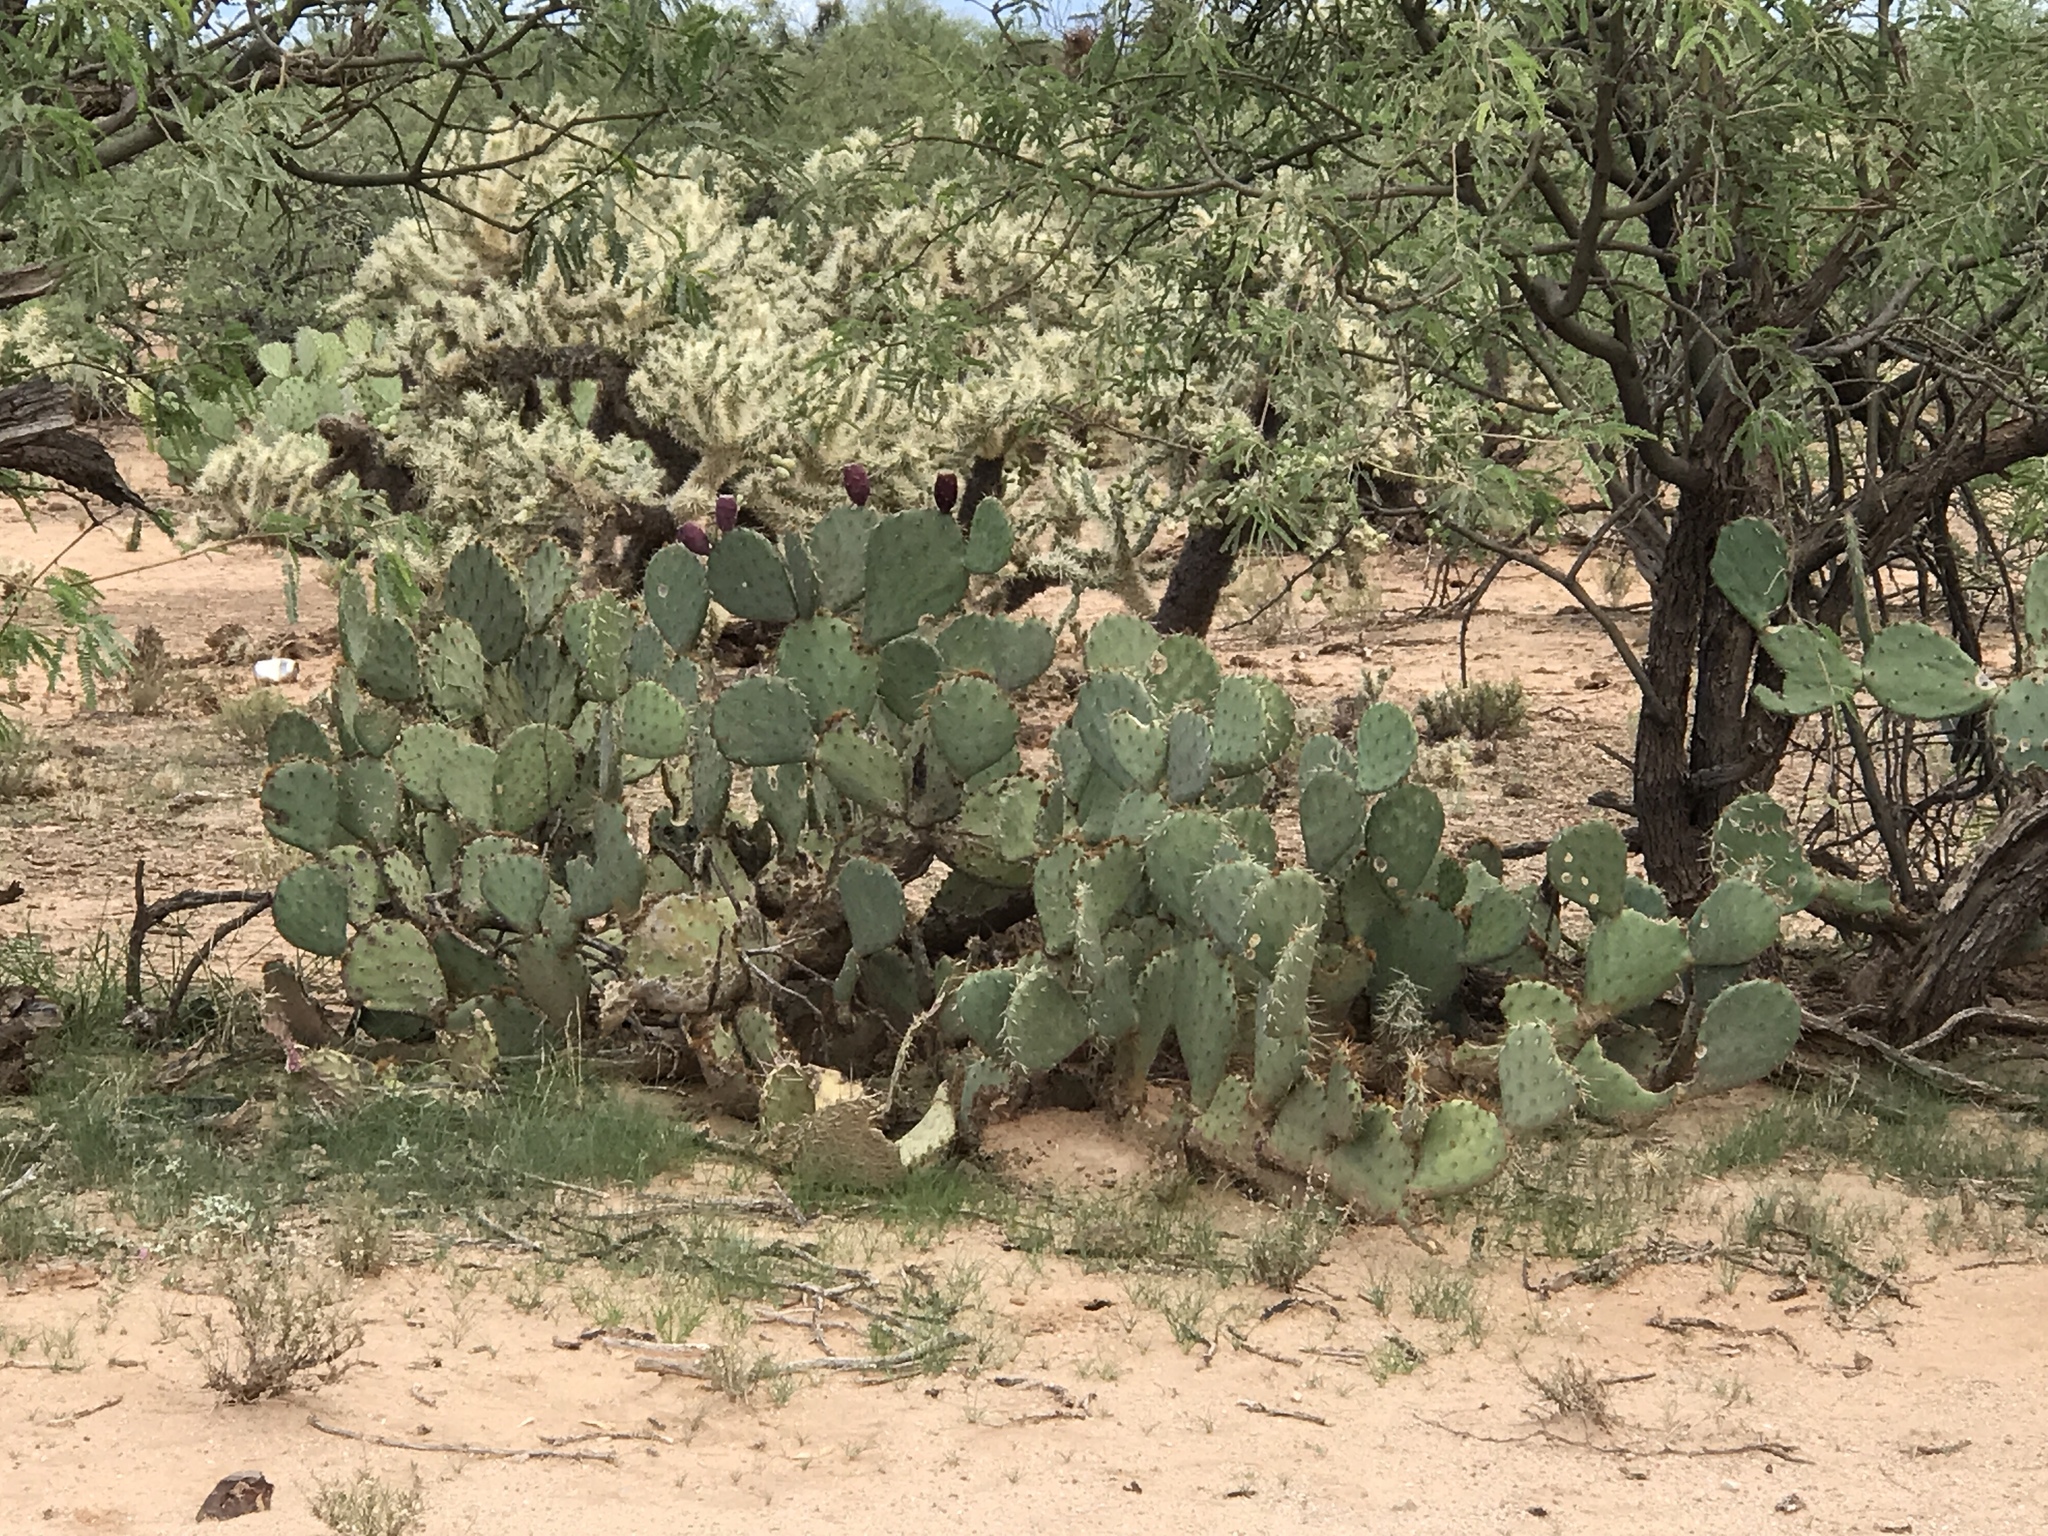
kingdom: Plantae
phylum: Tracheophyta
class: Magnoliopsida
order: Caryophyllales
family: Cactaceae
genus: Opuntia
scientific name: Opuntia engelmannii
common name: Cactus-apple
